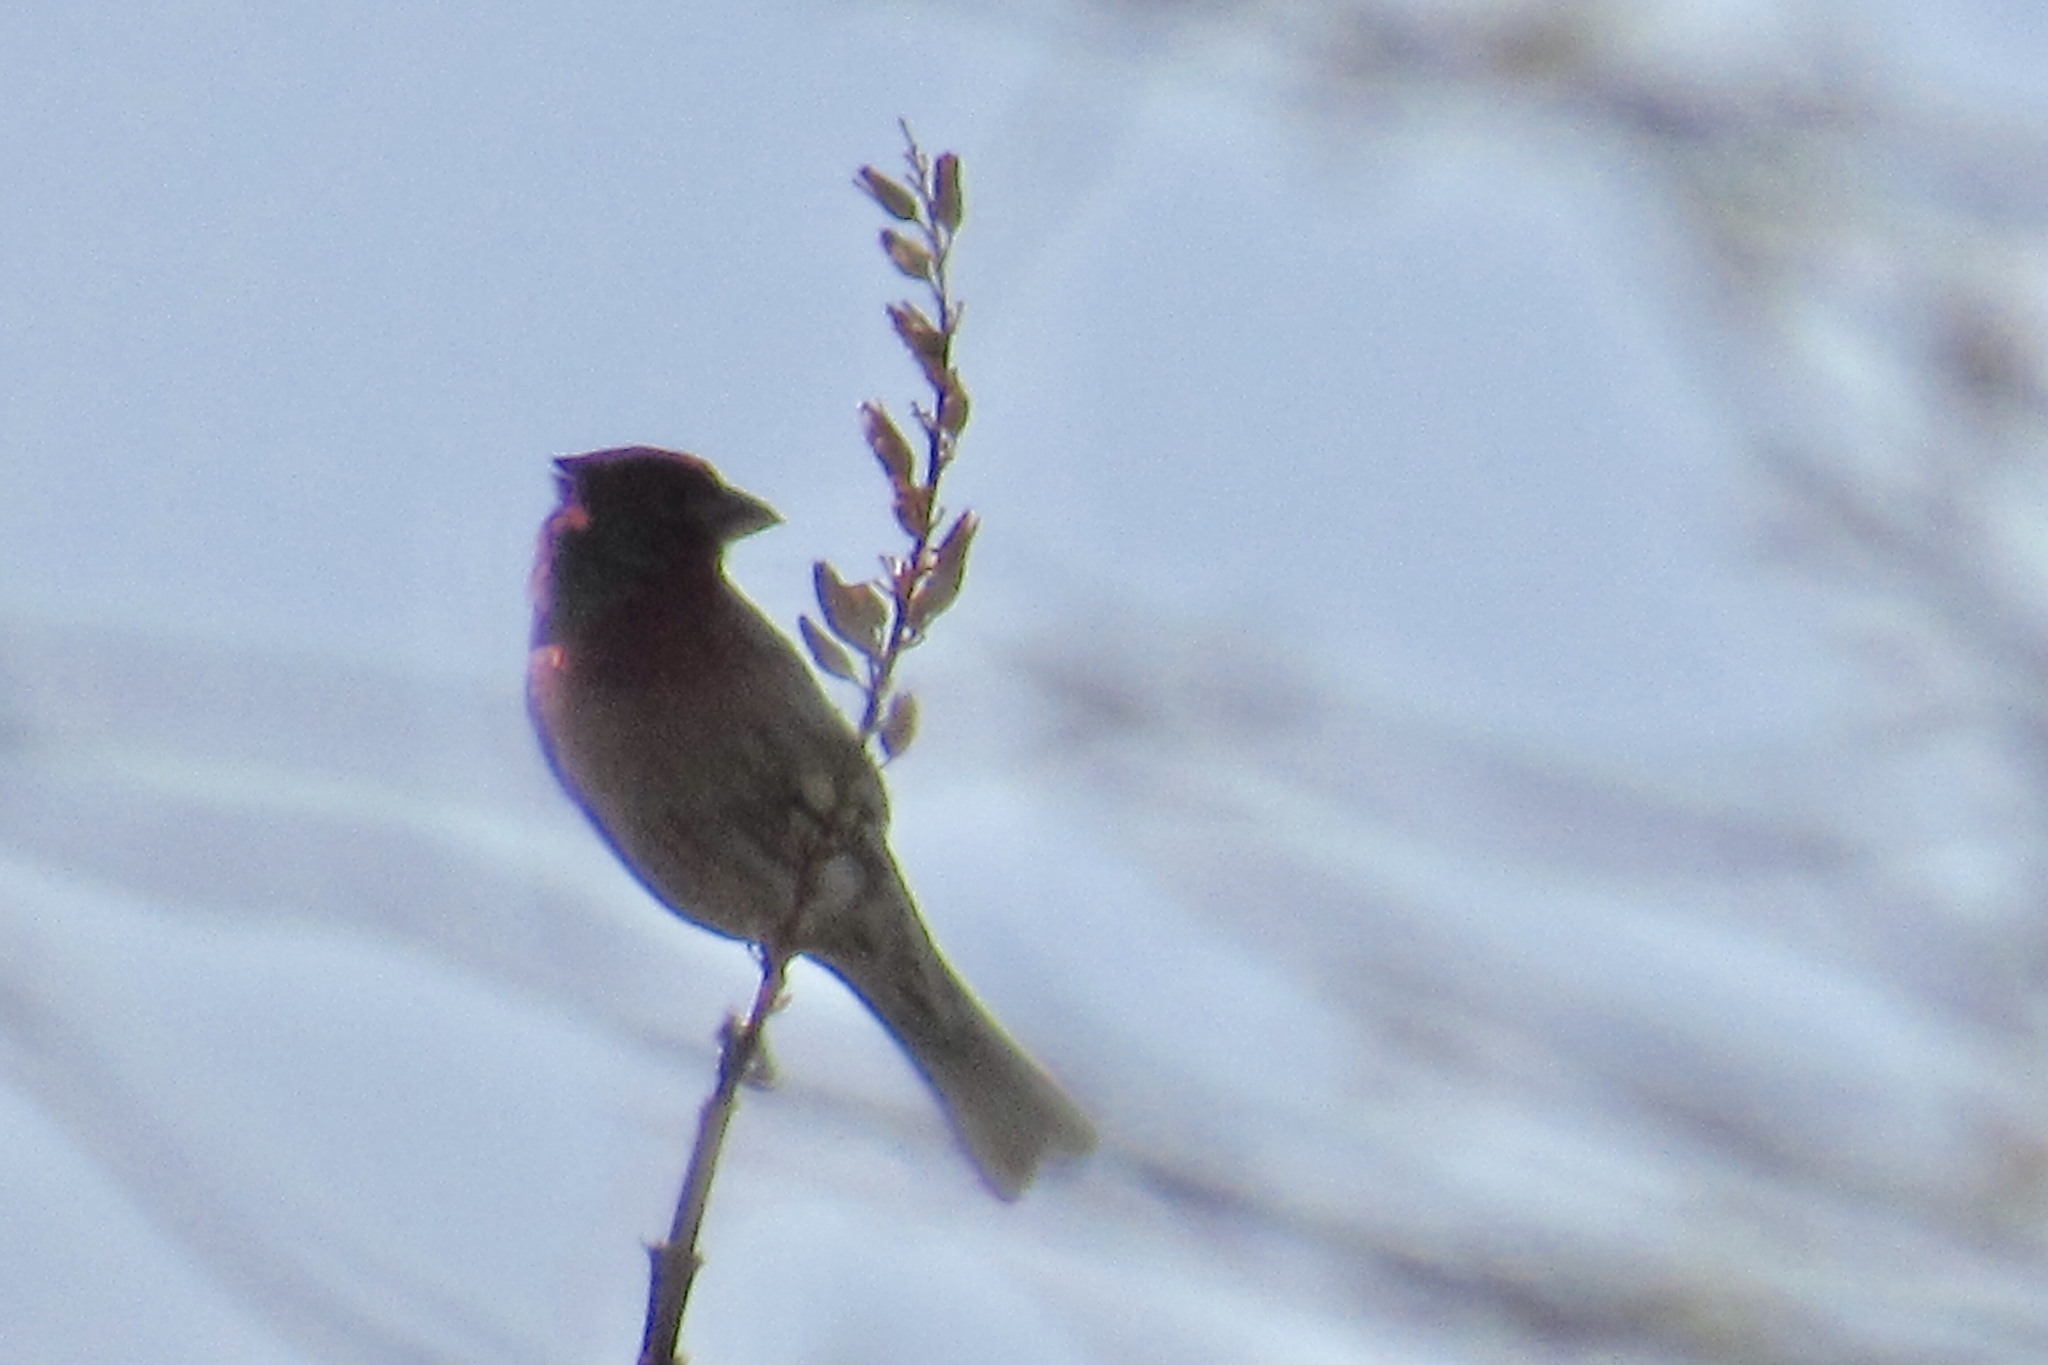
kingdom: Animalia
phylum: Chordata
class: Aves
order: Passeriformes
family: Fringillidae
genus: Haemorhous
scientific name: Haemorhous mexicanus
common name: House finch
